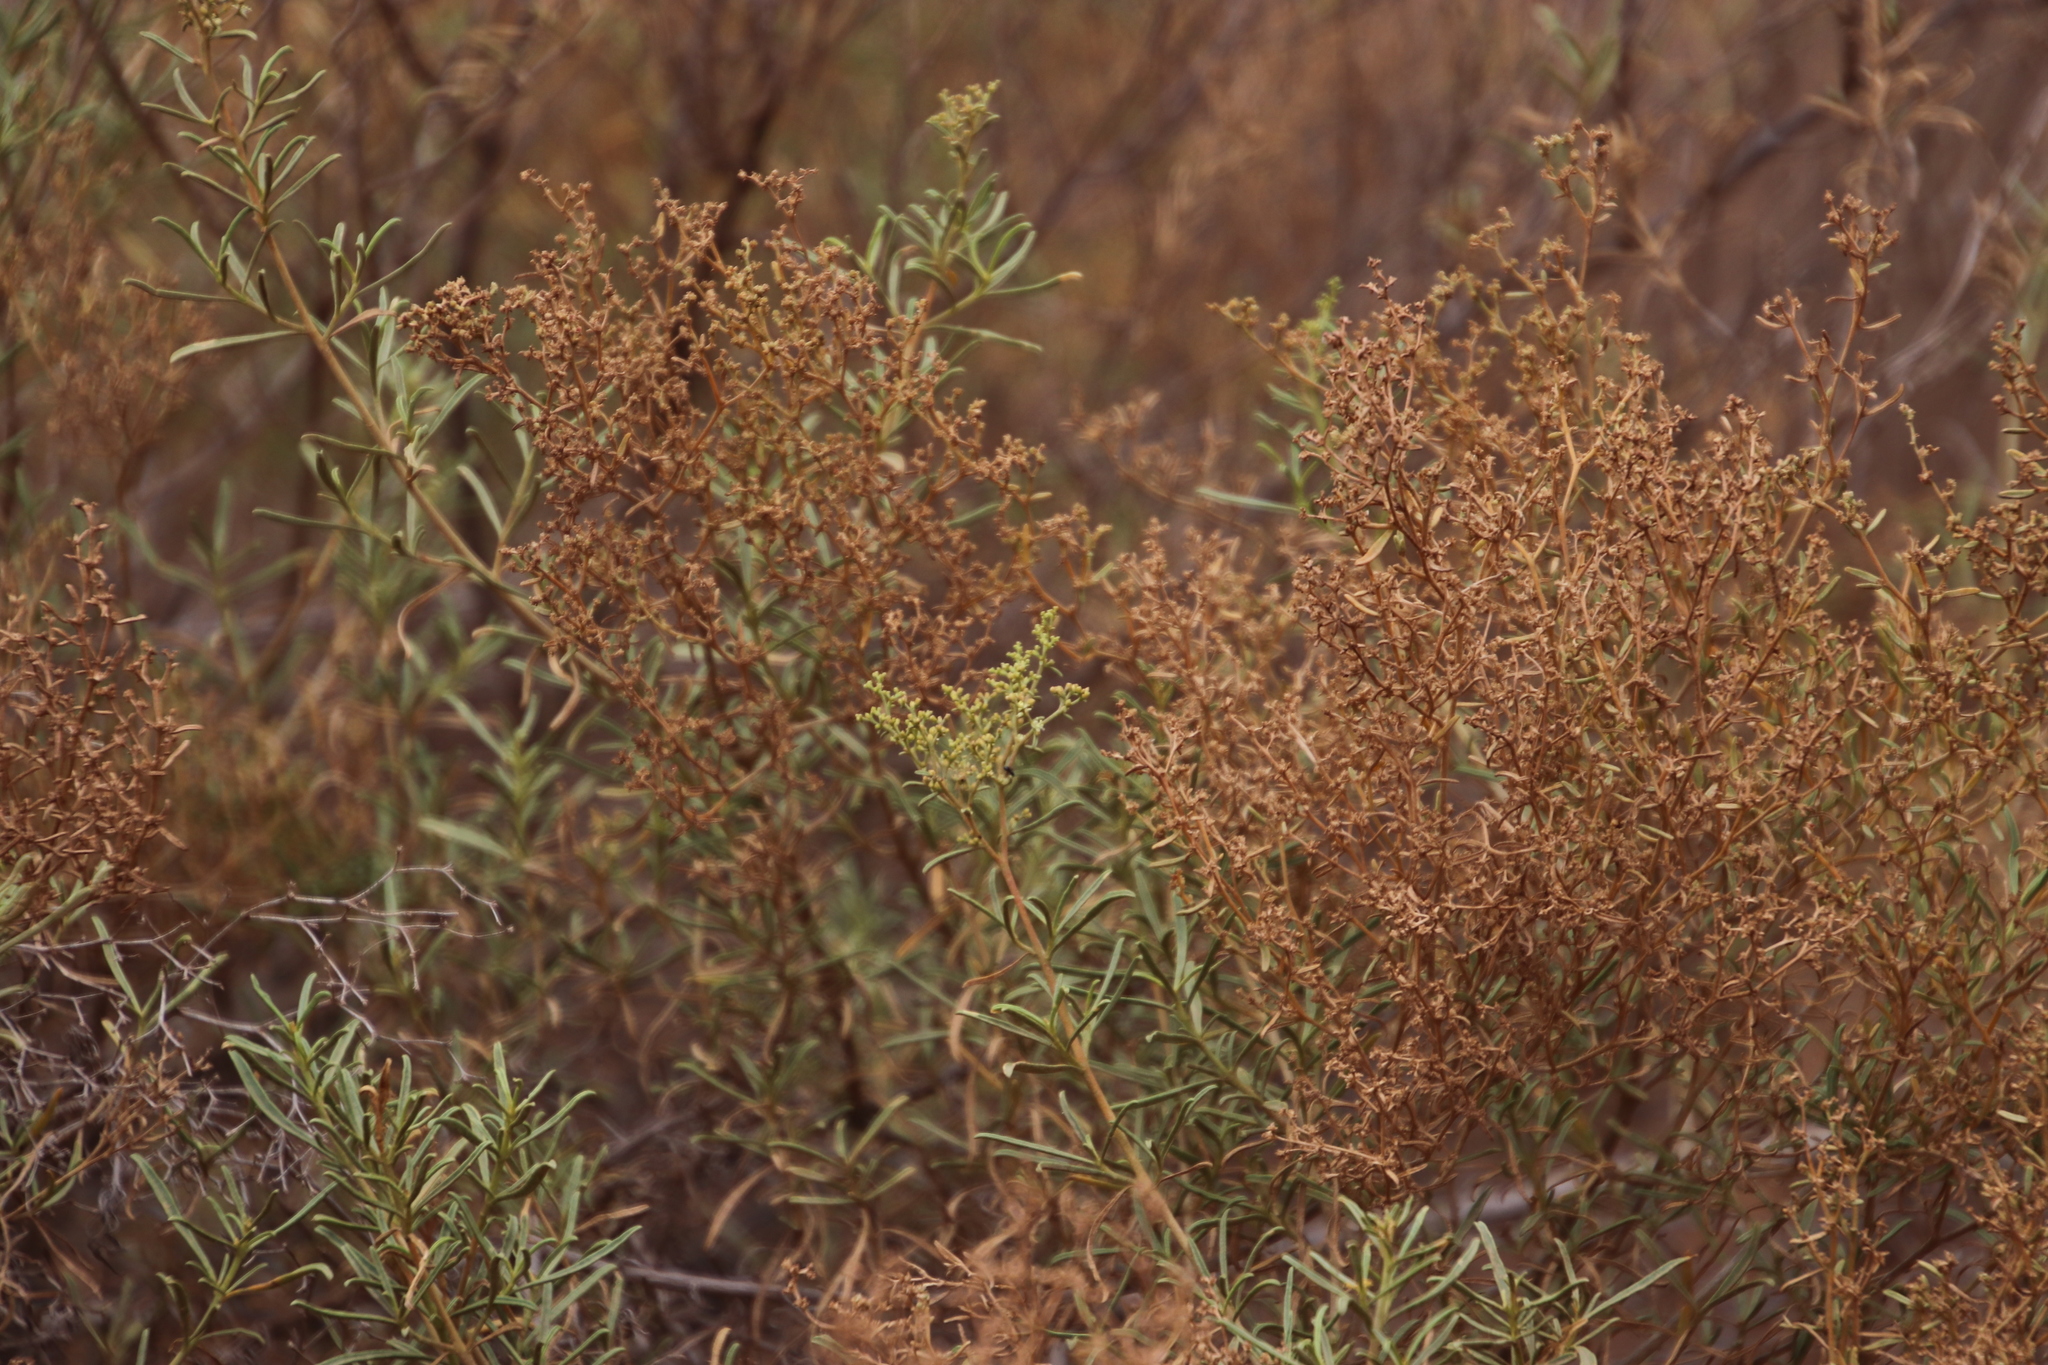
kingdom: Plantae
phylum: Tracheophyta
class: Magnoliopsida
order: Caryophyllales
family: Aizoaceae
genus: Aizoon
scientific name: Aizoon africanum
